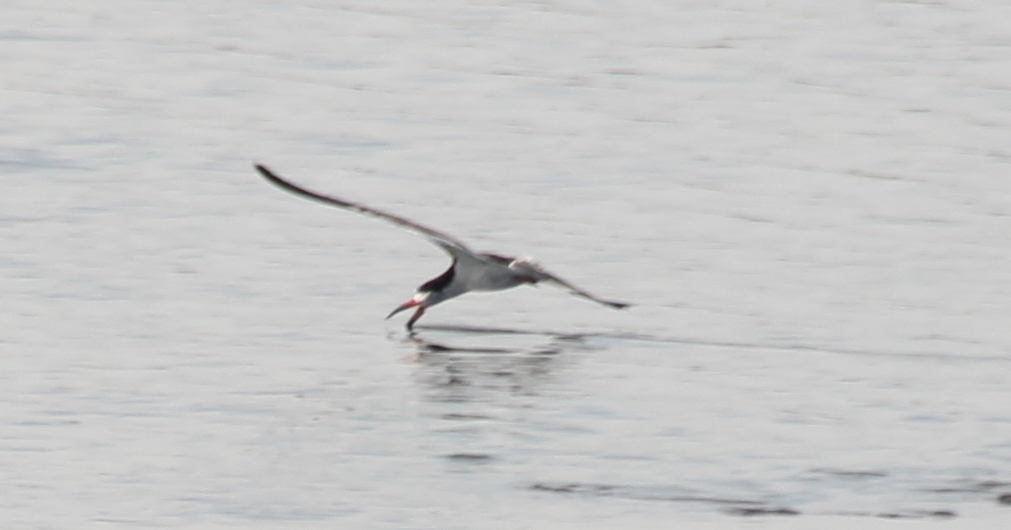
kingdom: Animalia
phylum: Chordata
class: Aves
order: Charadriiformes
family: Laridae
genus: Rynchops
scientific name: Rynchops niger
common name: Black skimmer
